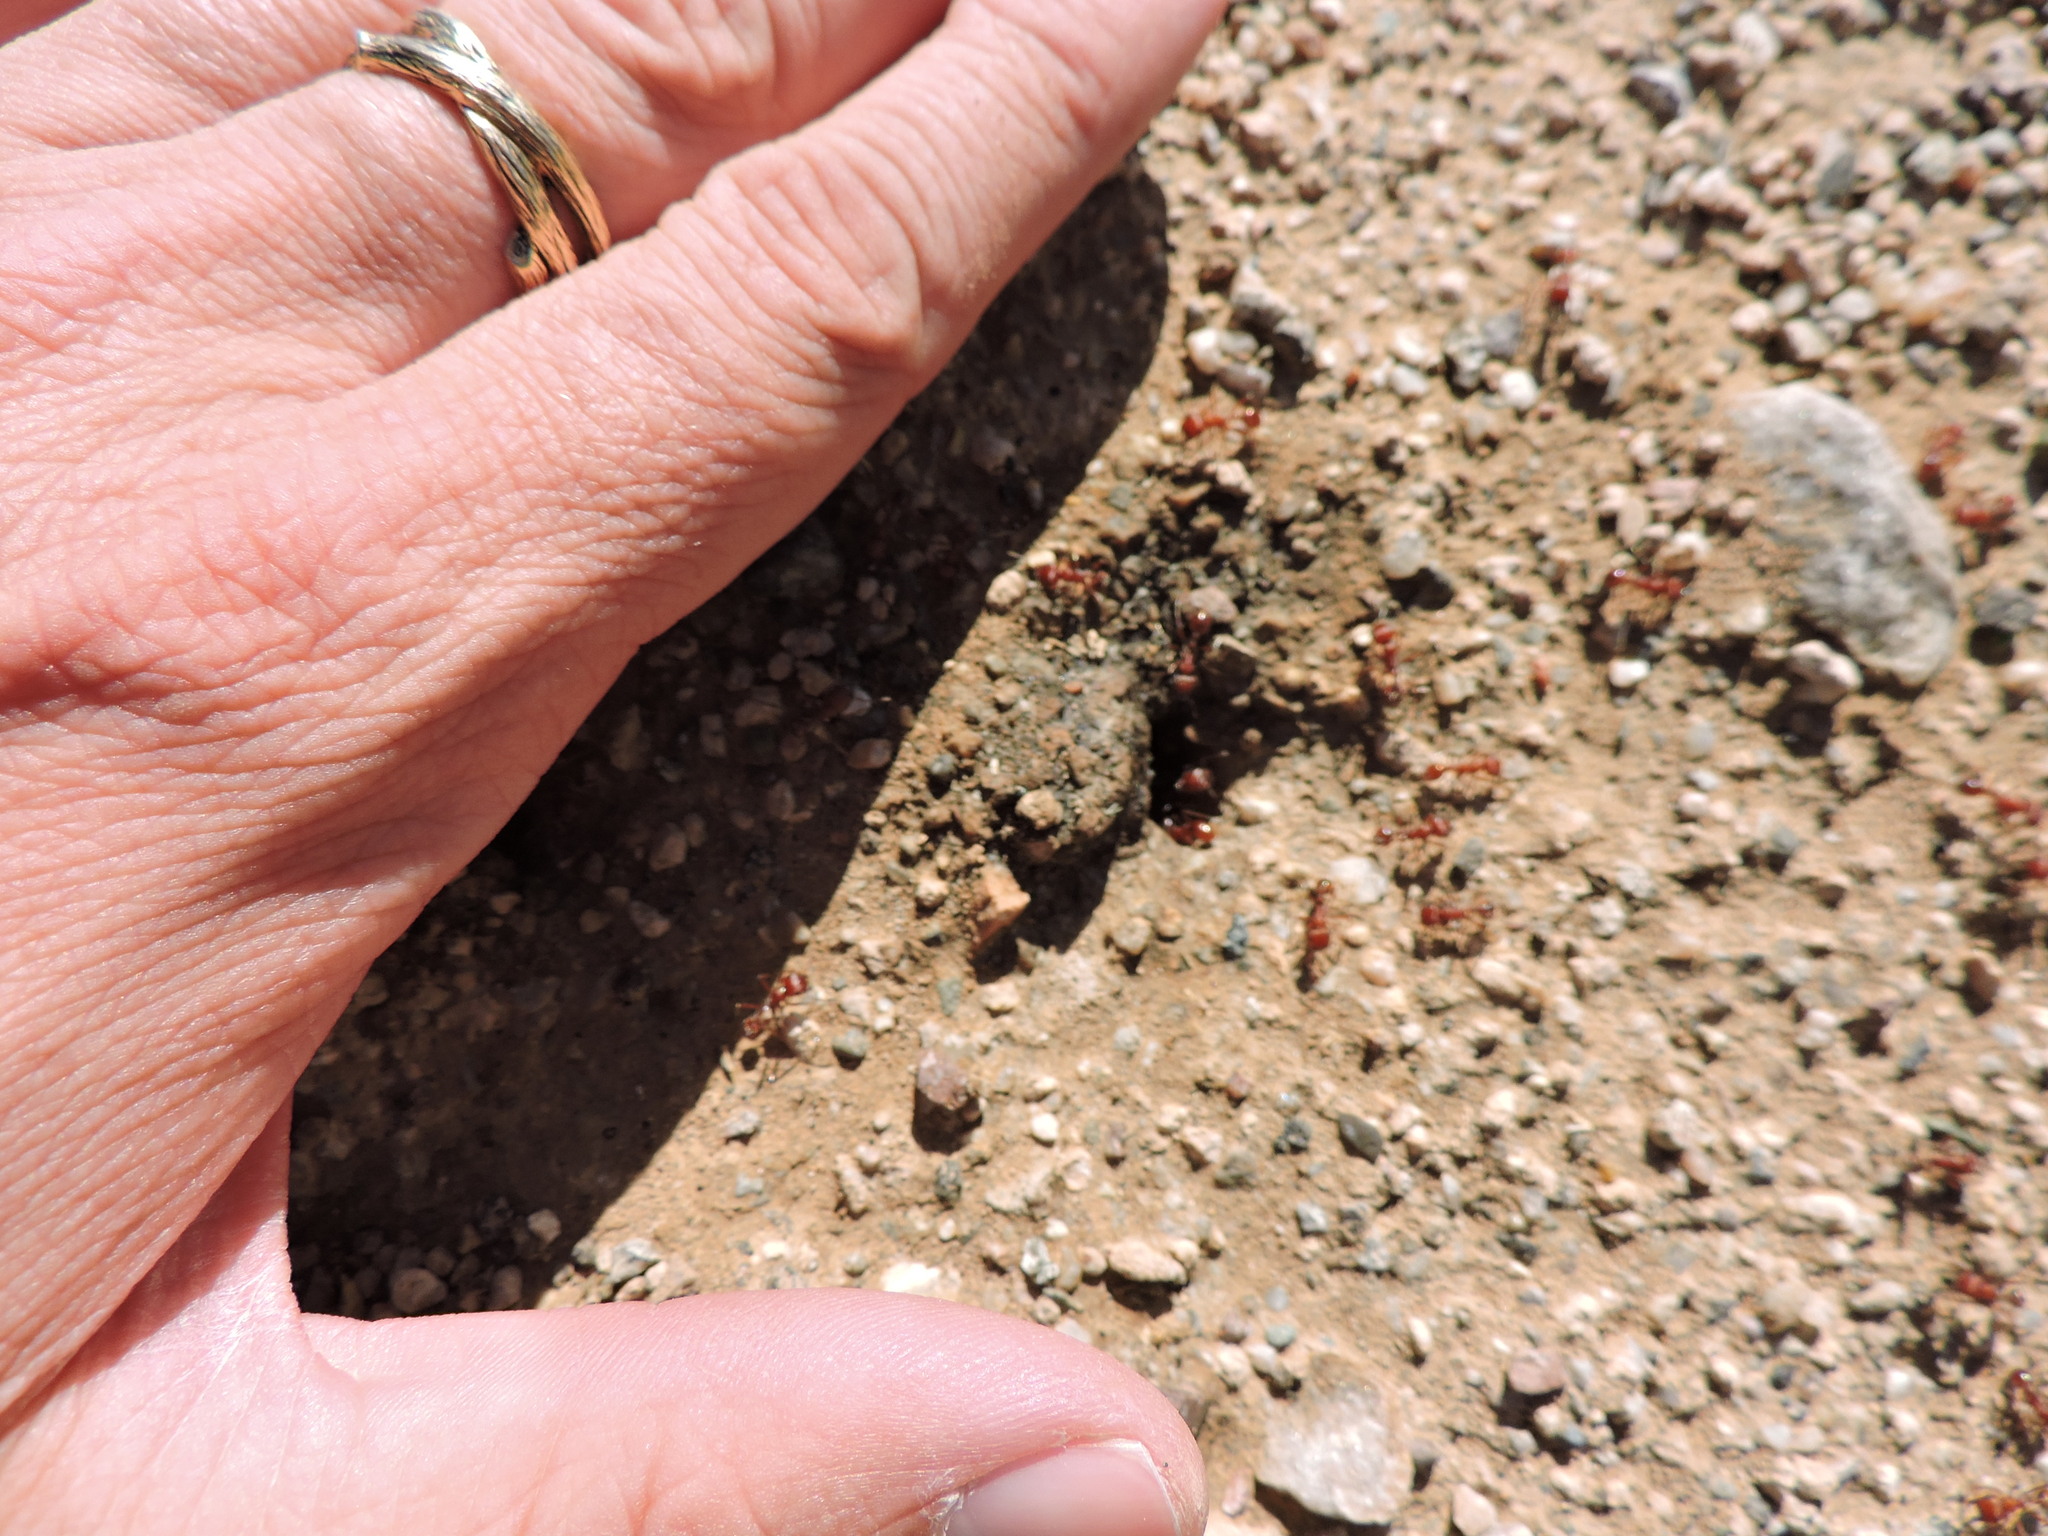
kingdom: Animalia
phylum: Arthropoda
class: Insecta
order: Hymenoptera
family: Formicidae
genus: Pogonomyrmex
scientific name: Pogonomyrmex maricopa
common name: Maricopa harvester ant
